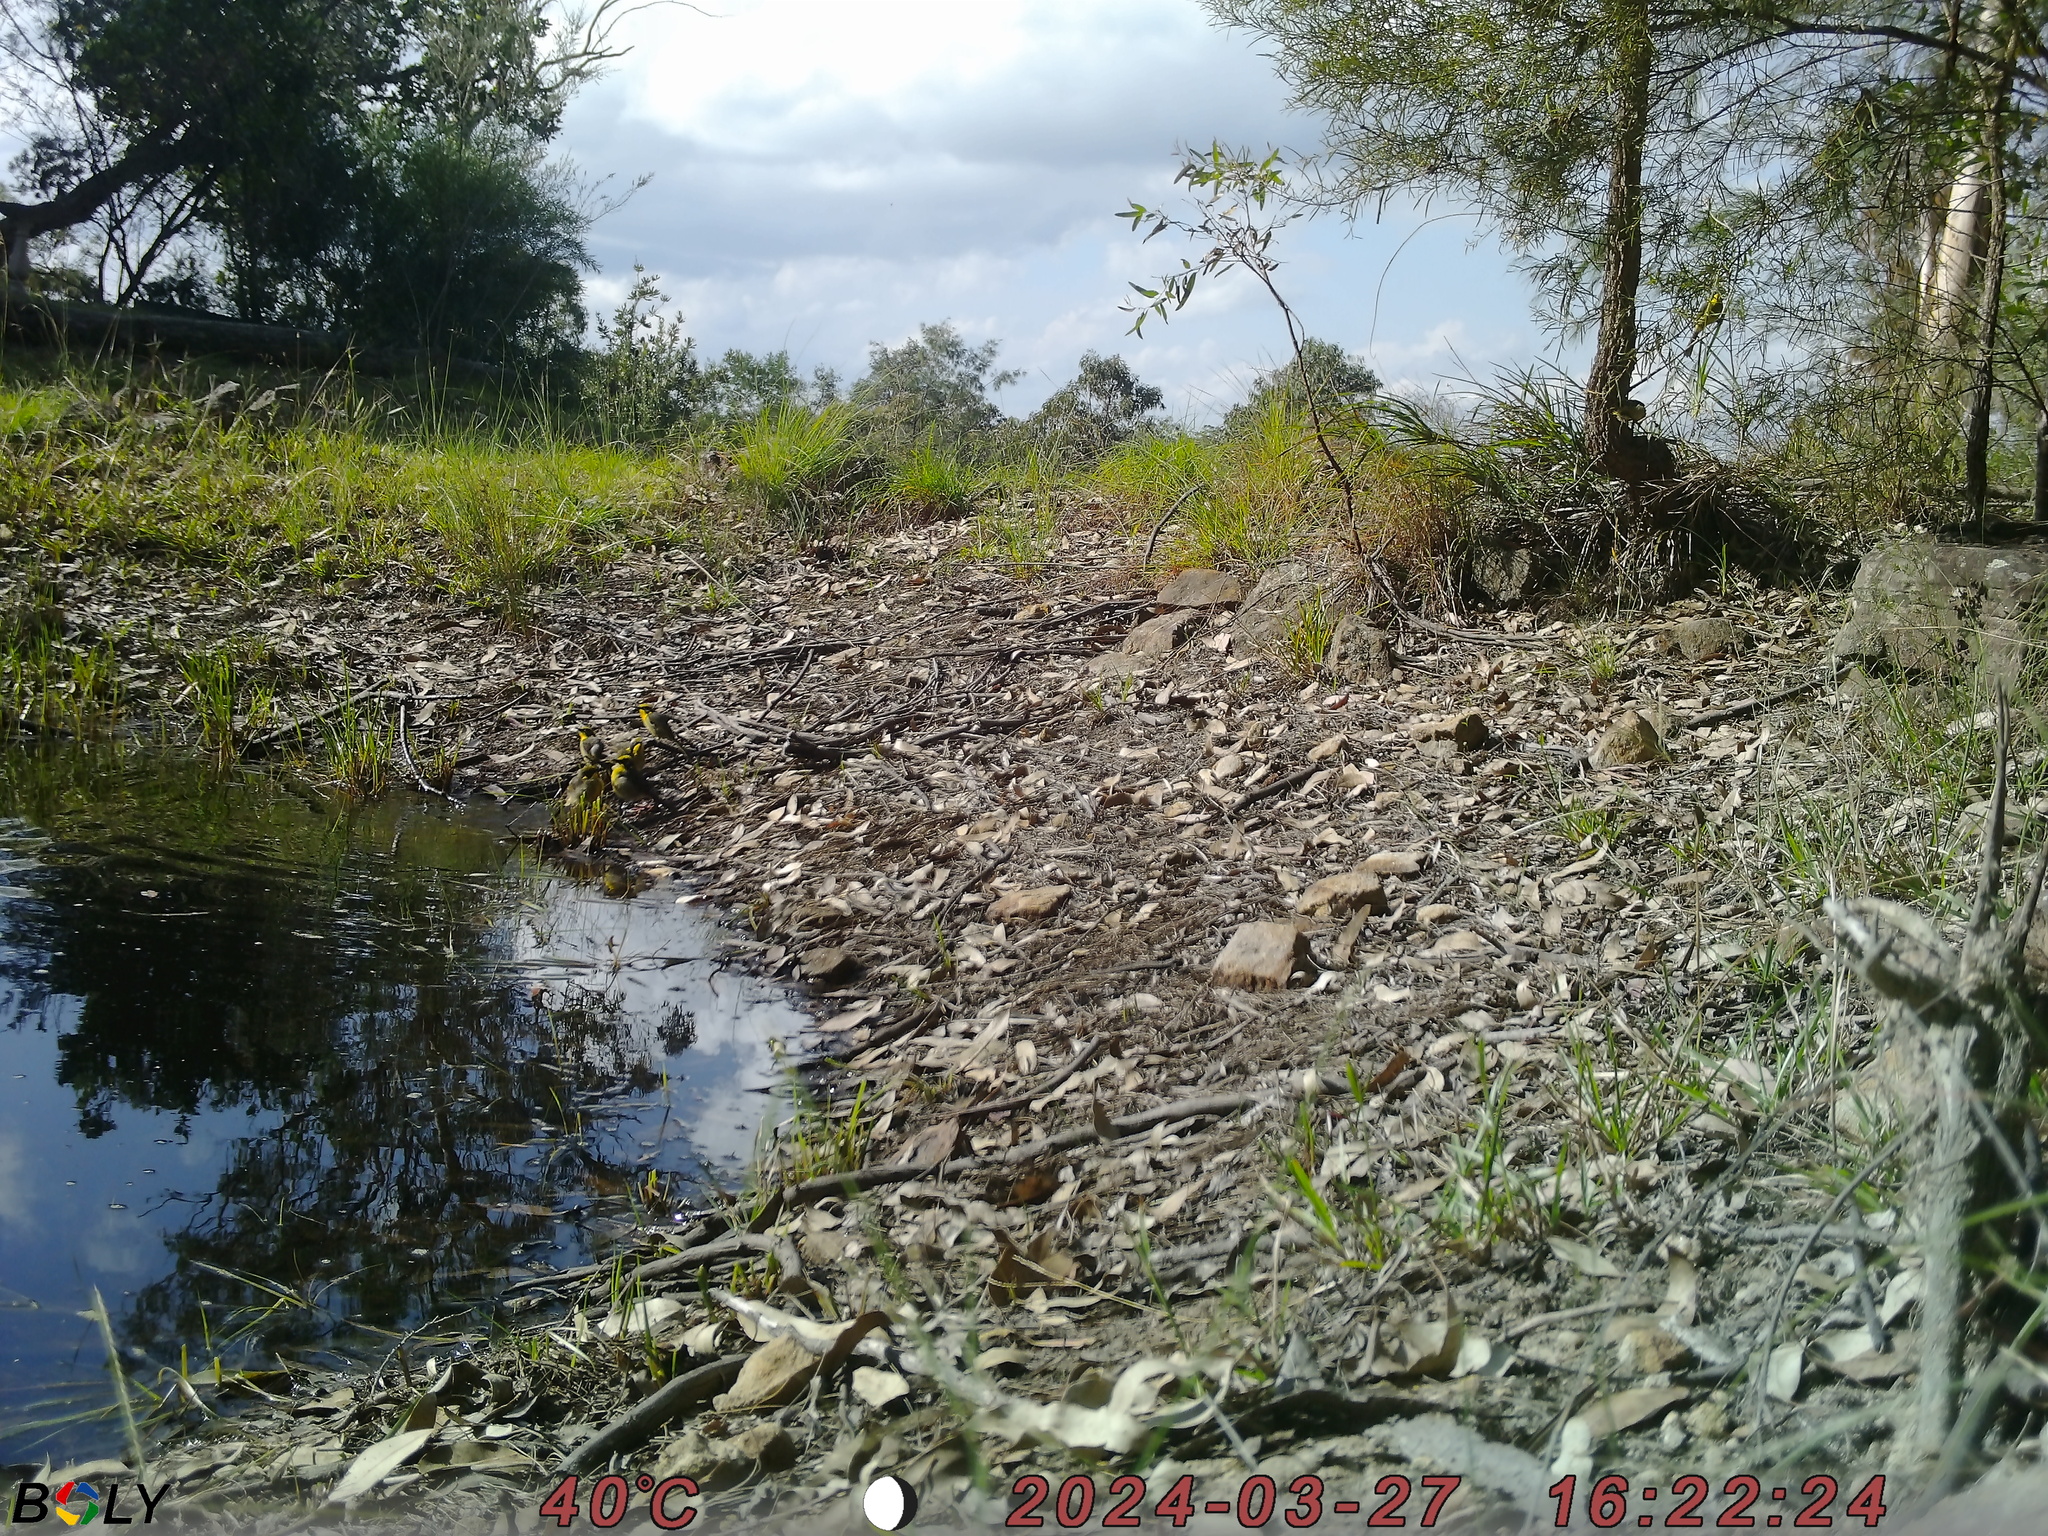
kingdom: Animalia
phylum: Chordata
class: Aves
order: Passeriformes
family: Meliphagidae
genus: Lichenostomus
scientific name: Lichenostomus melanops
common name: Yellow-tufted honeyeater
